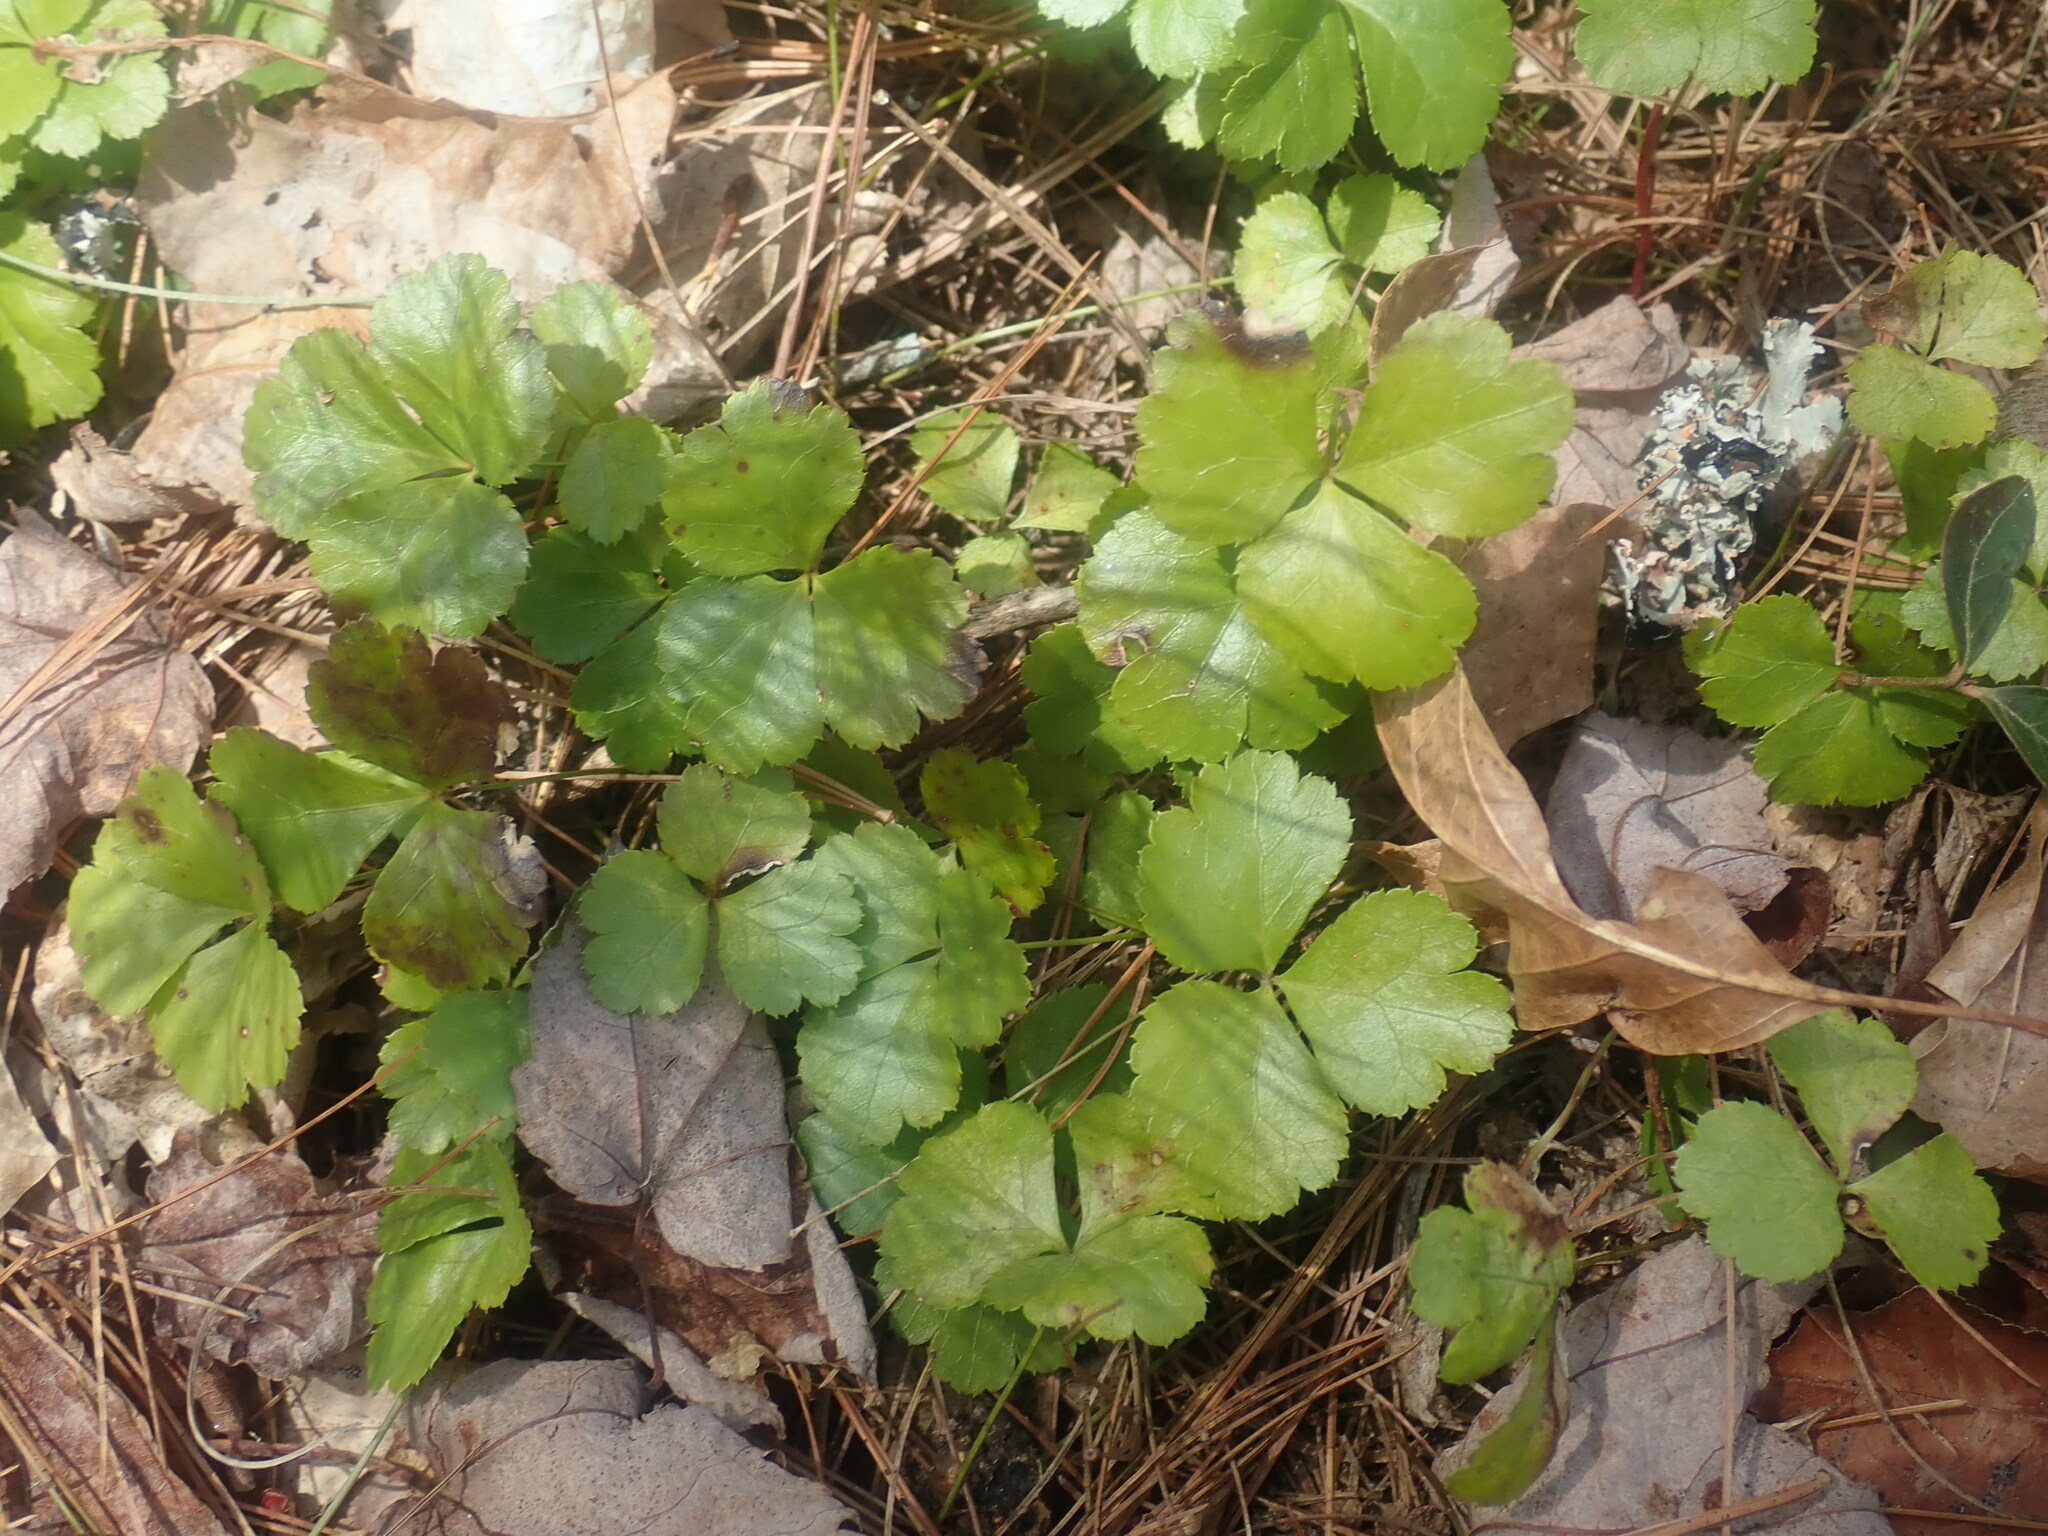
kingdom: Plantae
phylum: Tracheophyta
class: Magnoliopsida
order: Ranunculales
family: Ranunculaceae
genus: Coptis
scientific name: Coptis trifolia
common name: Canker-root
